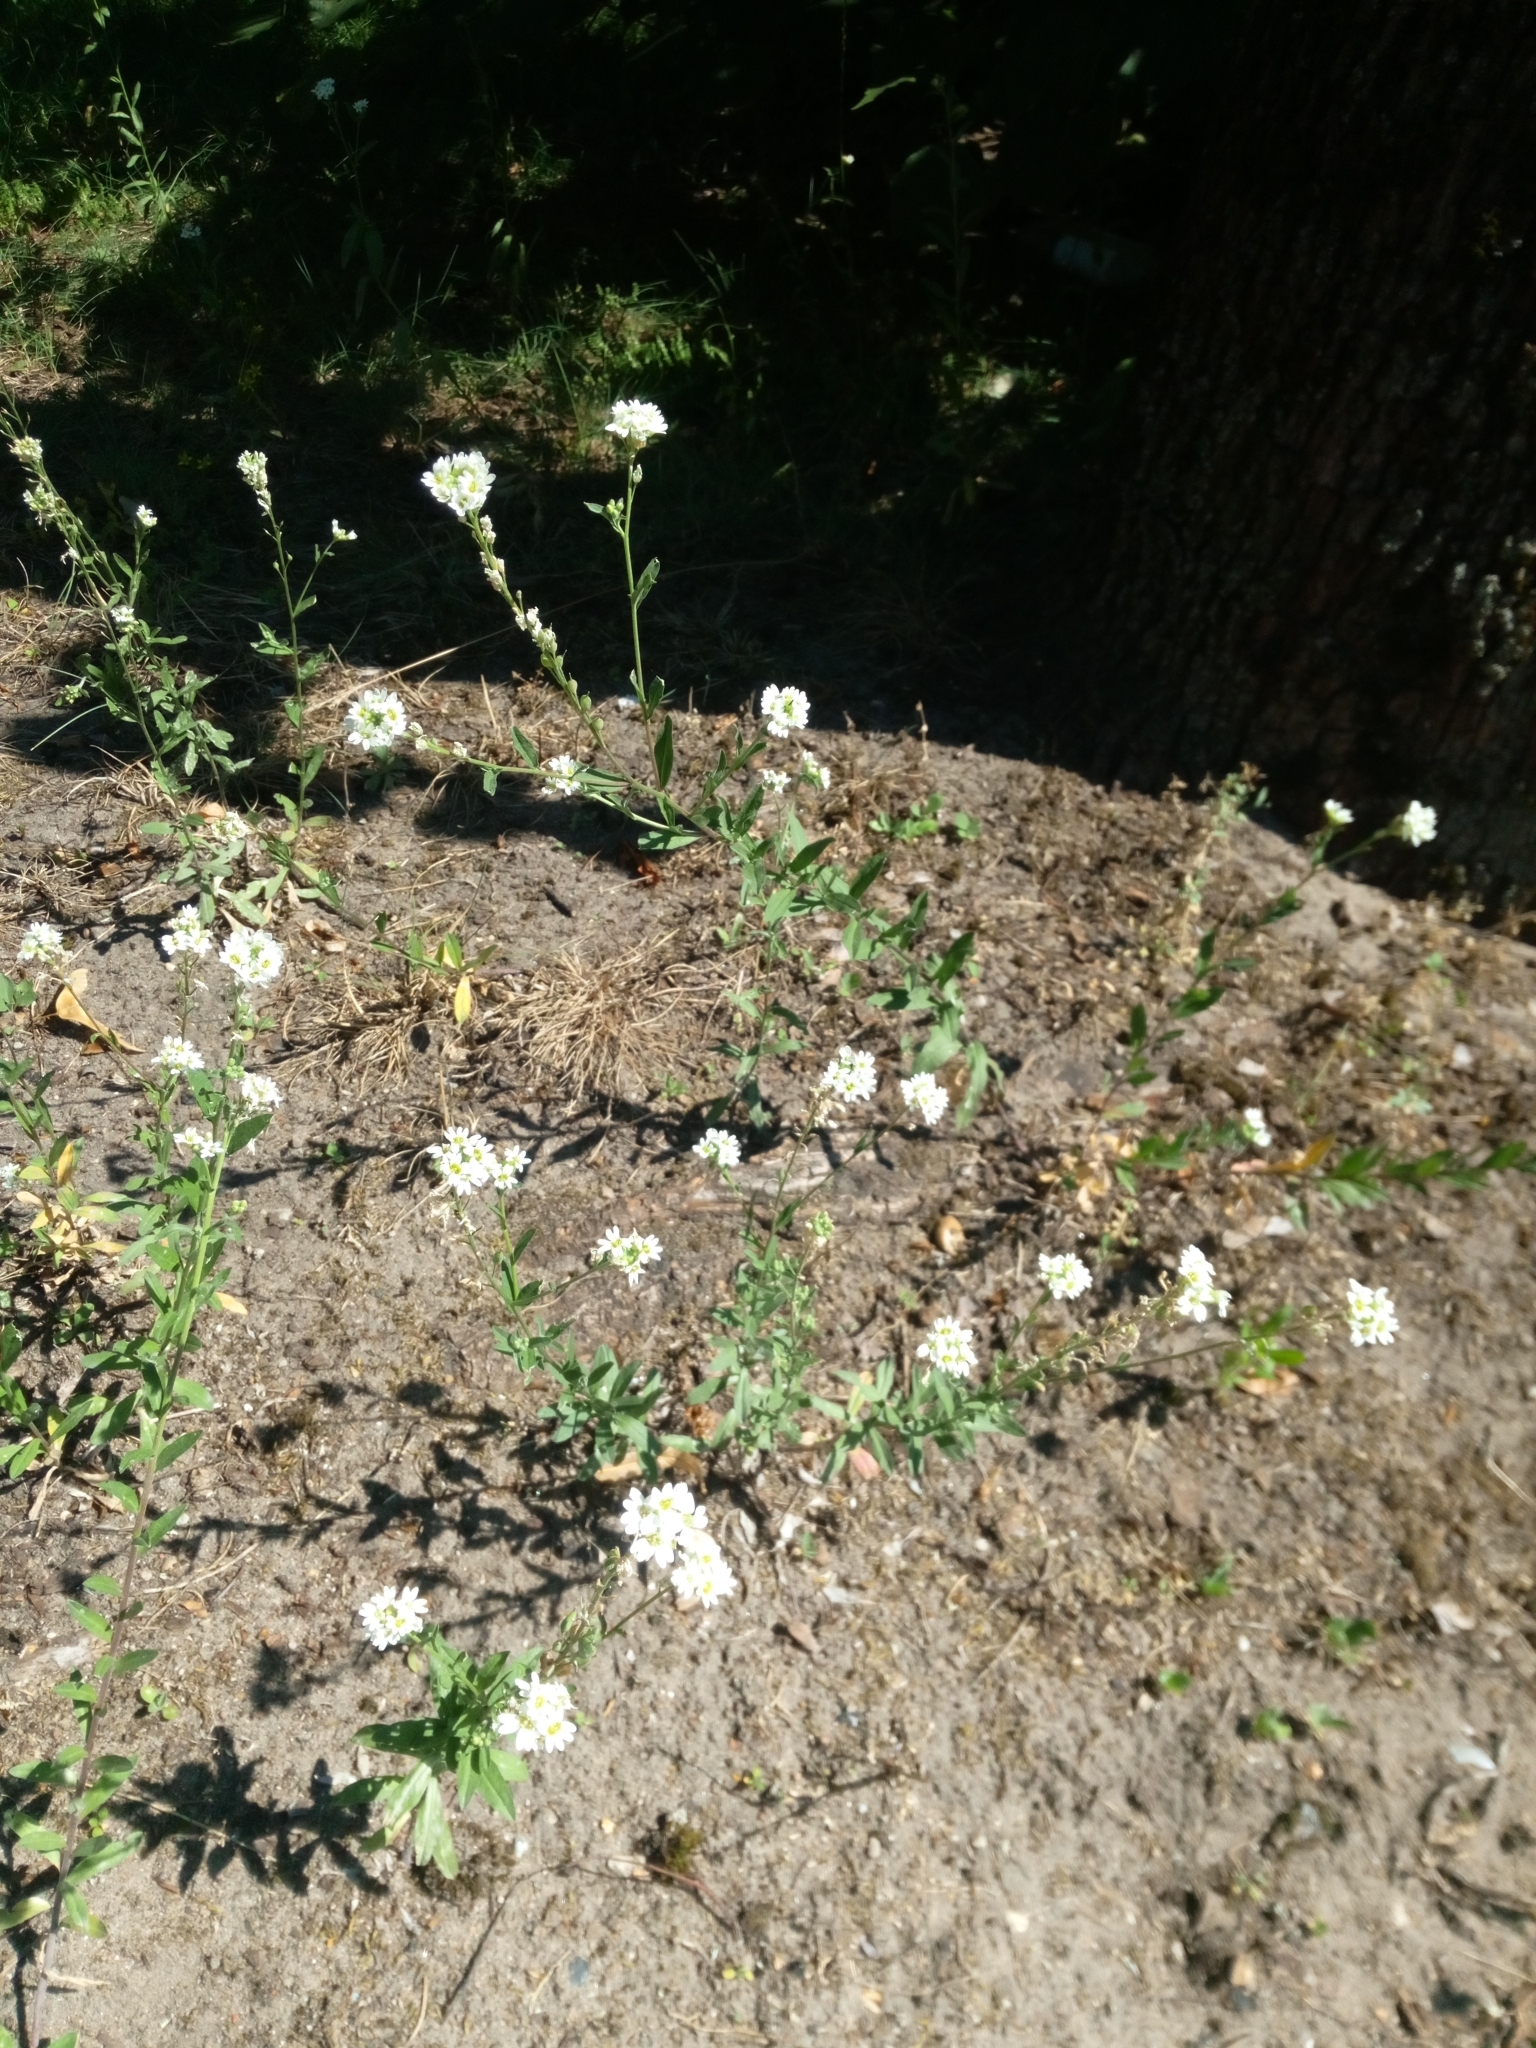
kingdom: Plantae
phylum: Tracheophyta
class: Magnoliopsida
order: Brassicales
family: Brassicaceae
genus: Berteroa
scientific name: Berteroa incana
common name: Hoary alison
